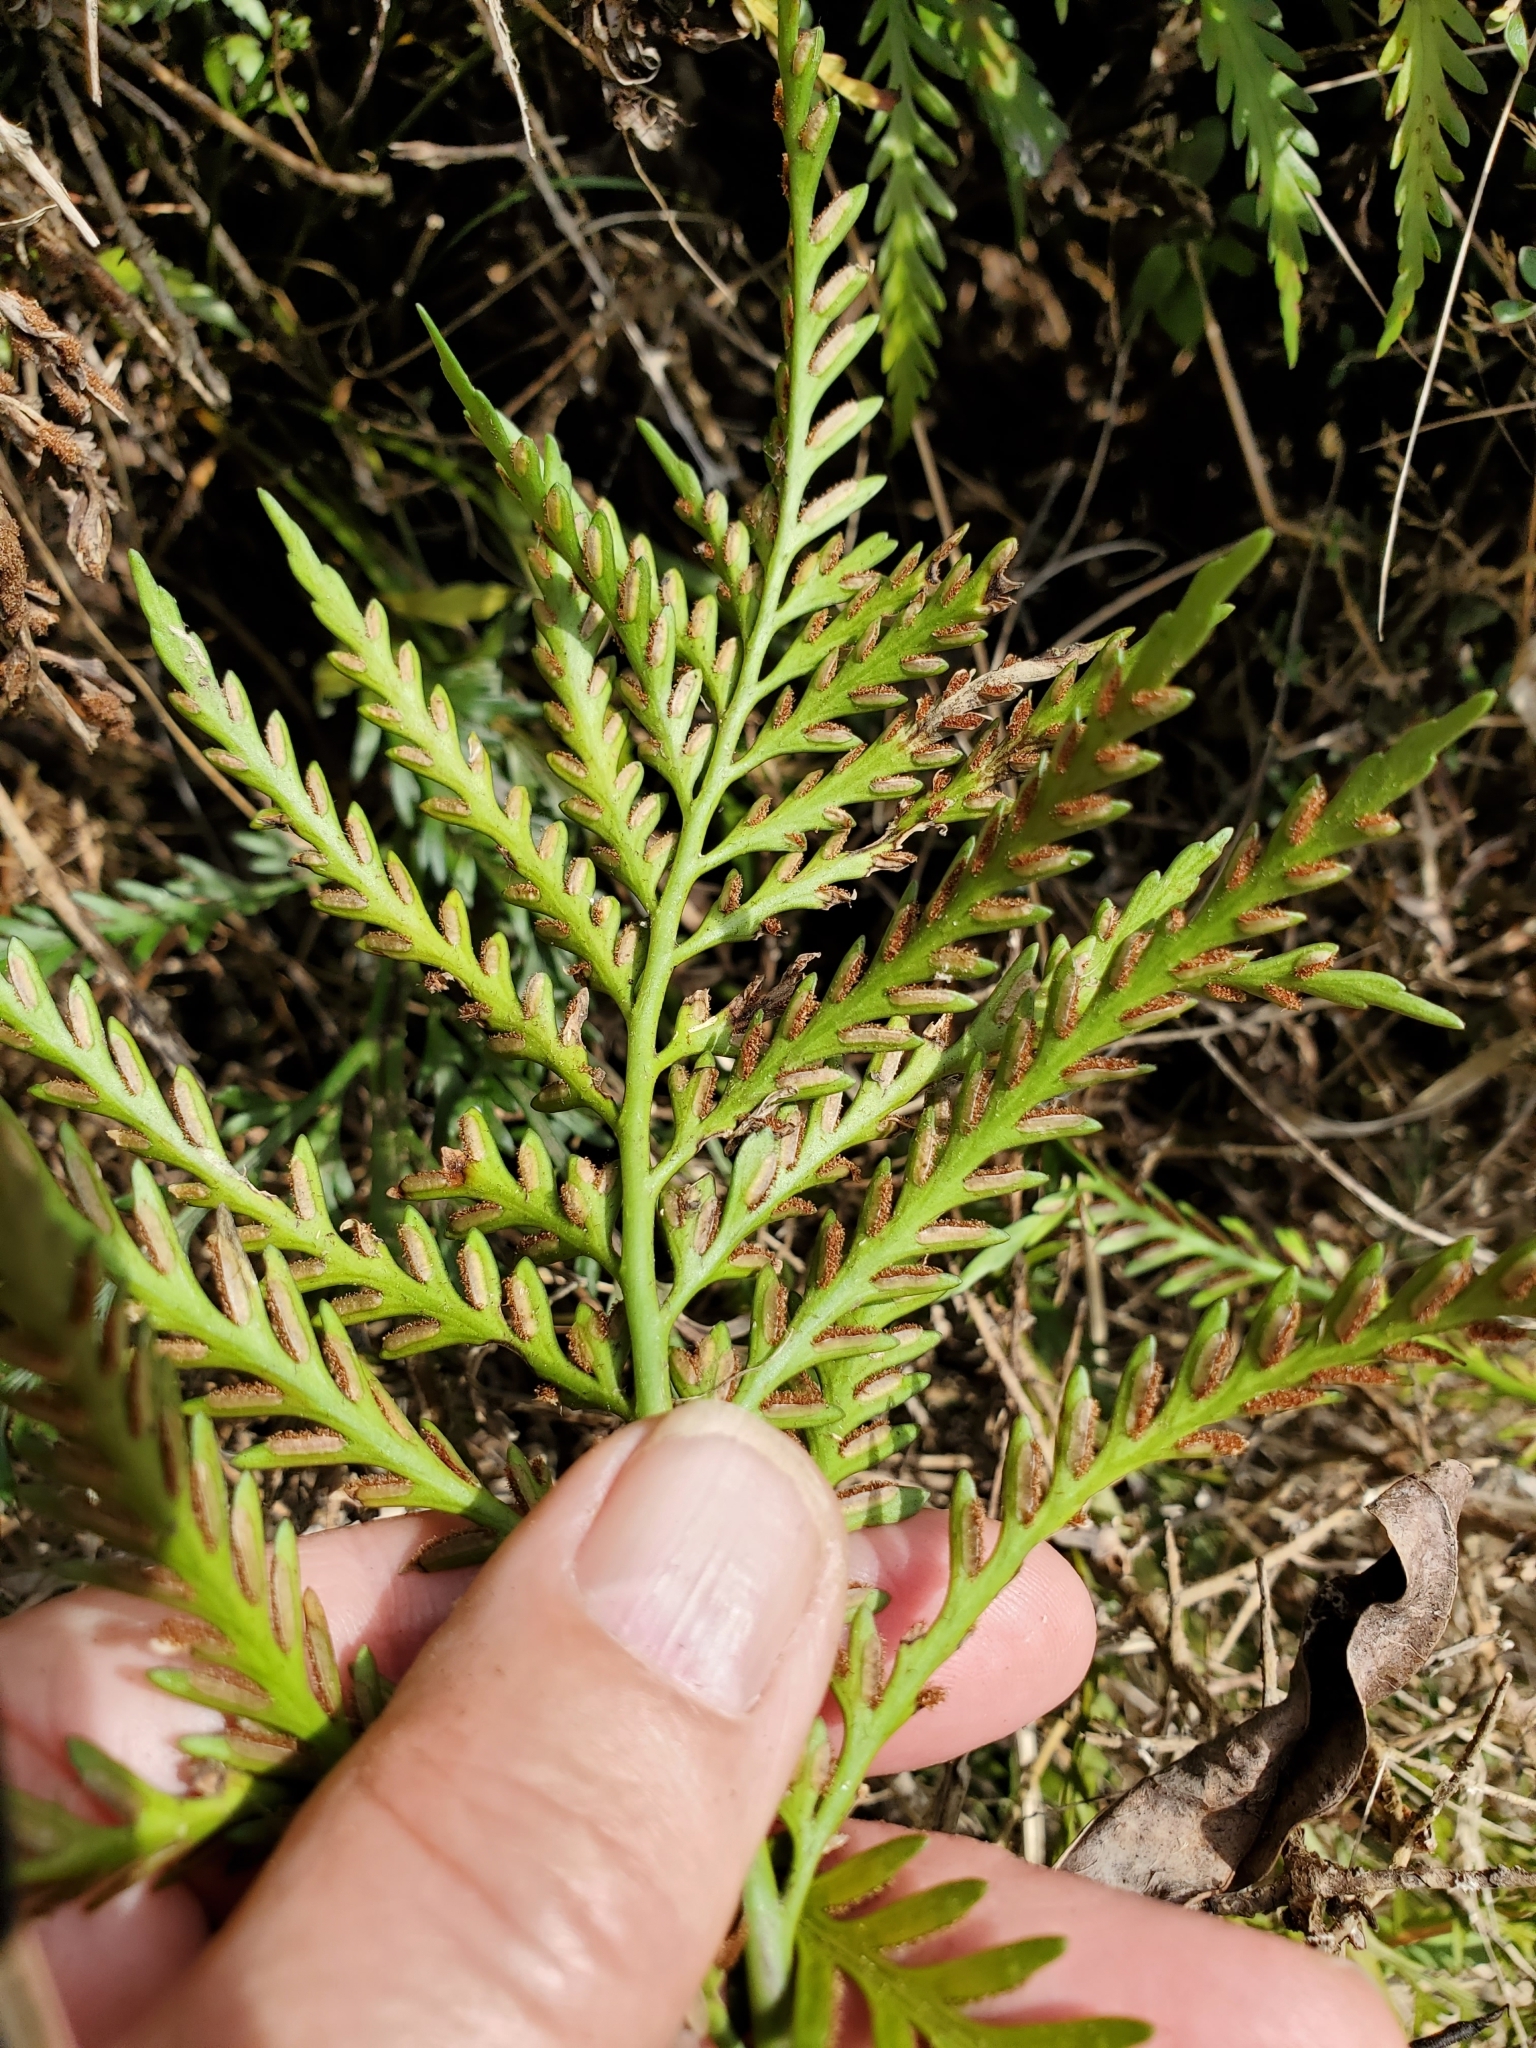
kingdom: Plantae
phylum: Tracheophyta
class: Polypodiopsida
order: Polypodiales
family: Aspleniaceae
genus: Asplenium
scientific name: Asplenium appendiculatum
